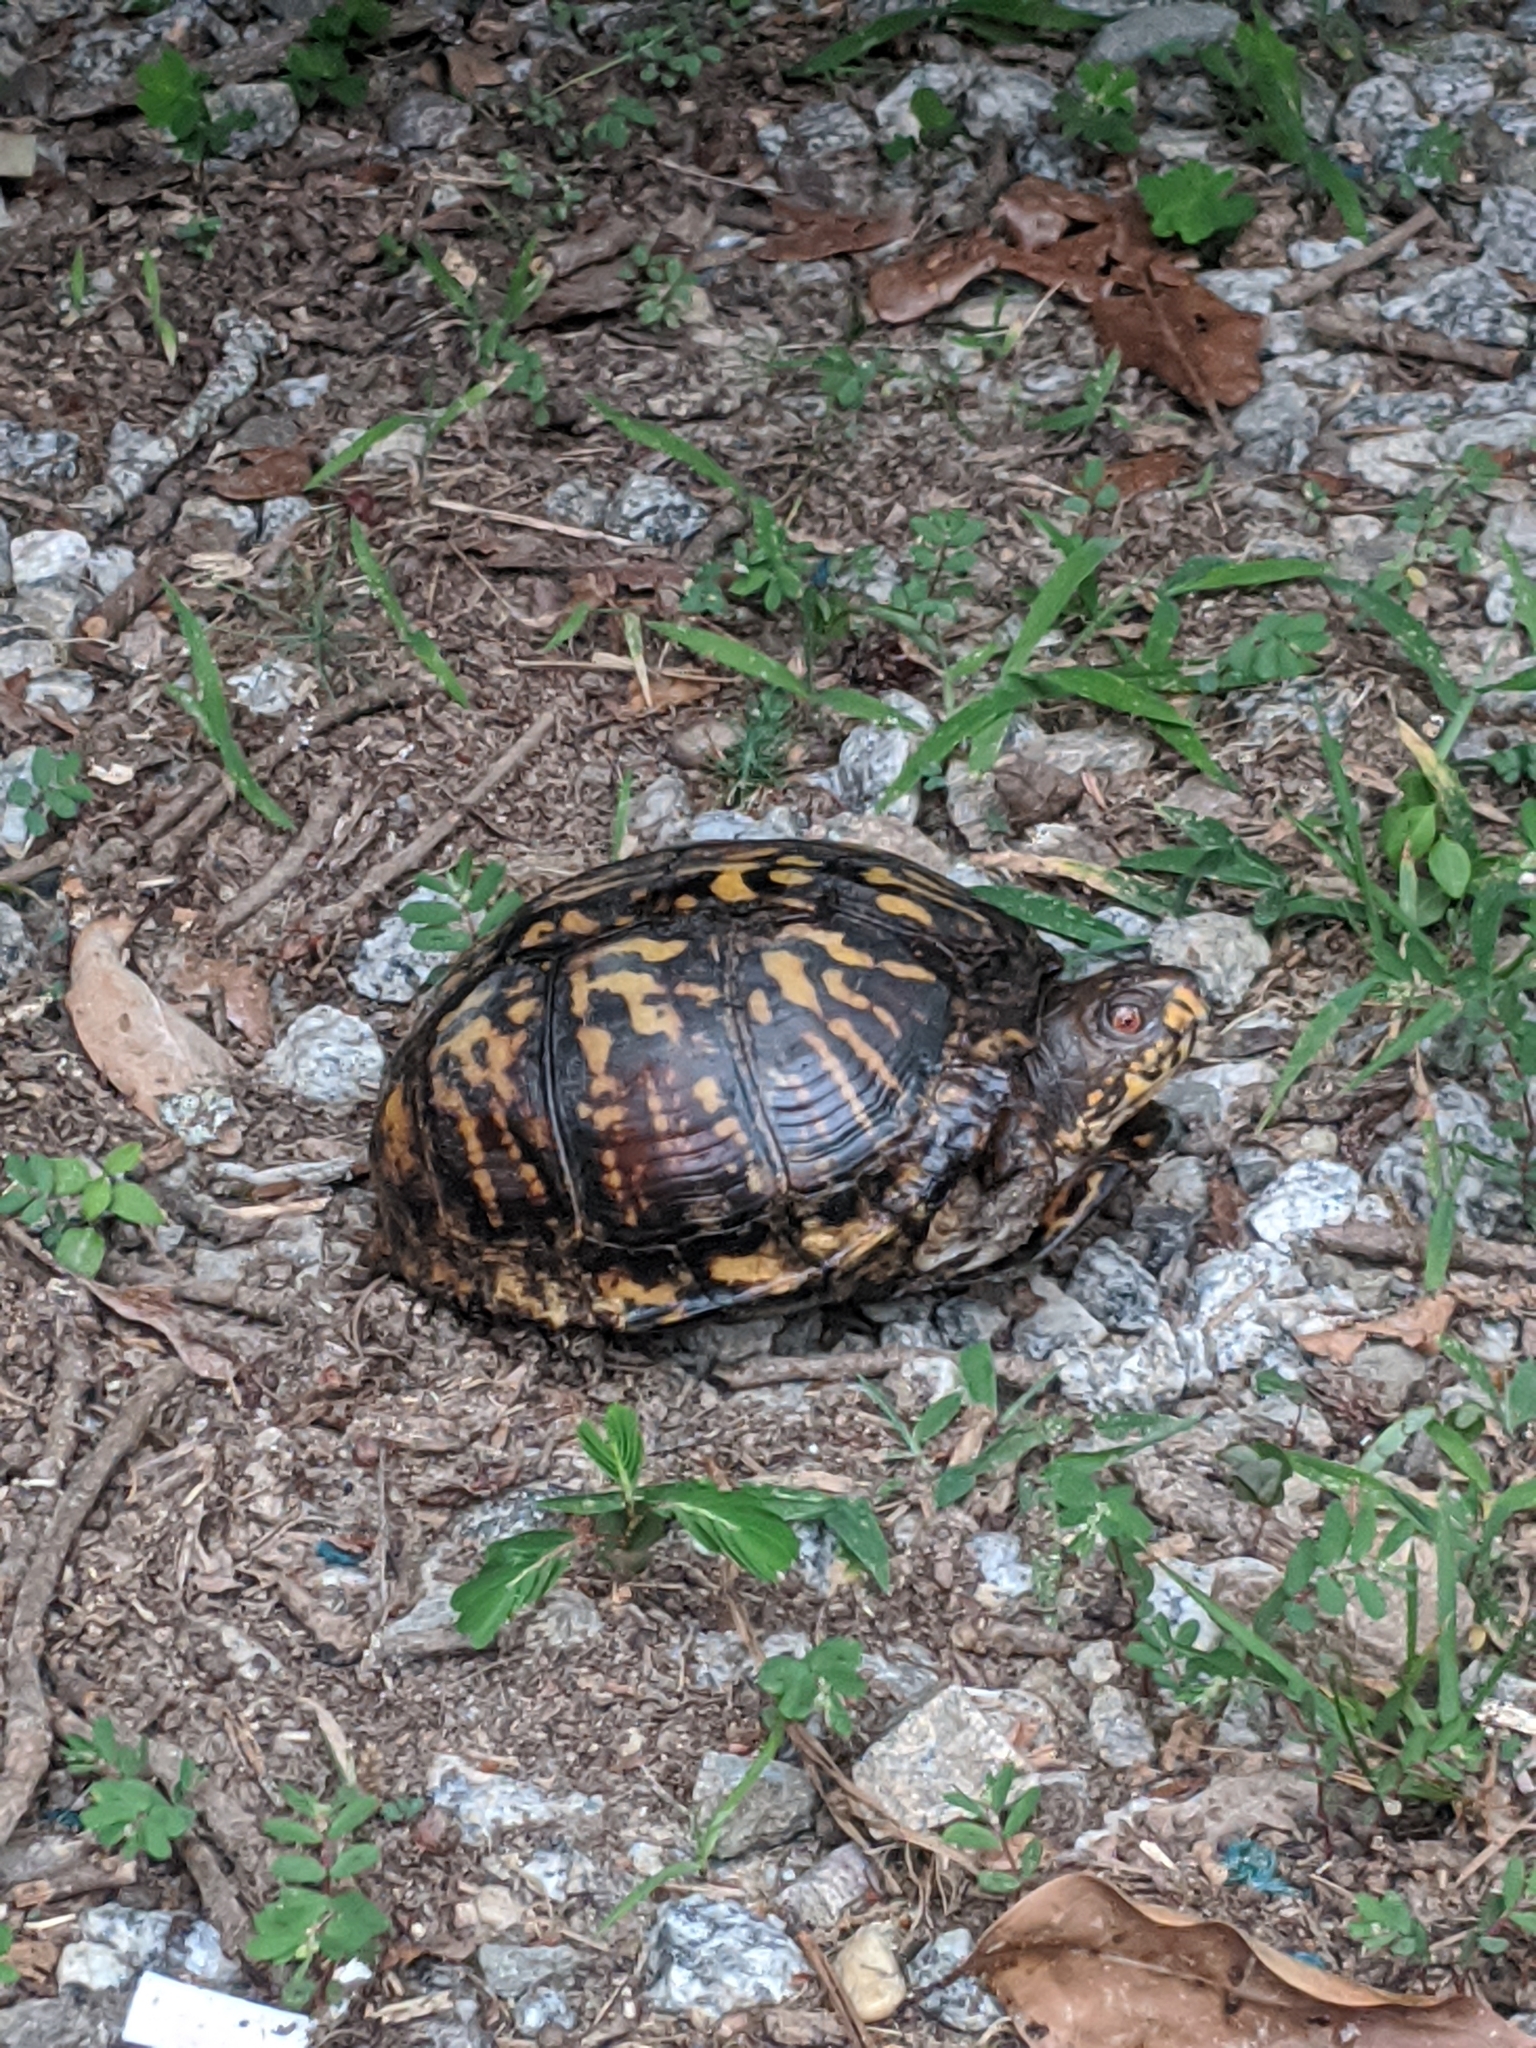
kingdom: Animalia
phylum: Chordata
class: Testudines
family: Emydidae
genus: Terrapene
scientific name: Terrapene carolina
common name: Common box turtle
